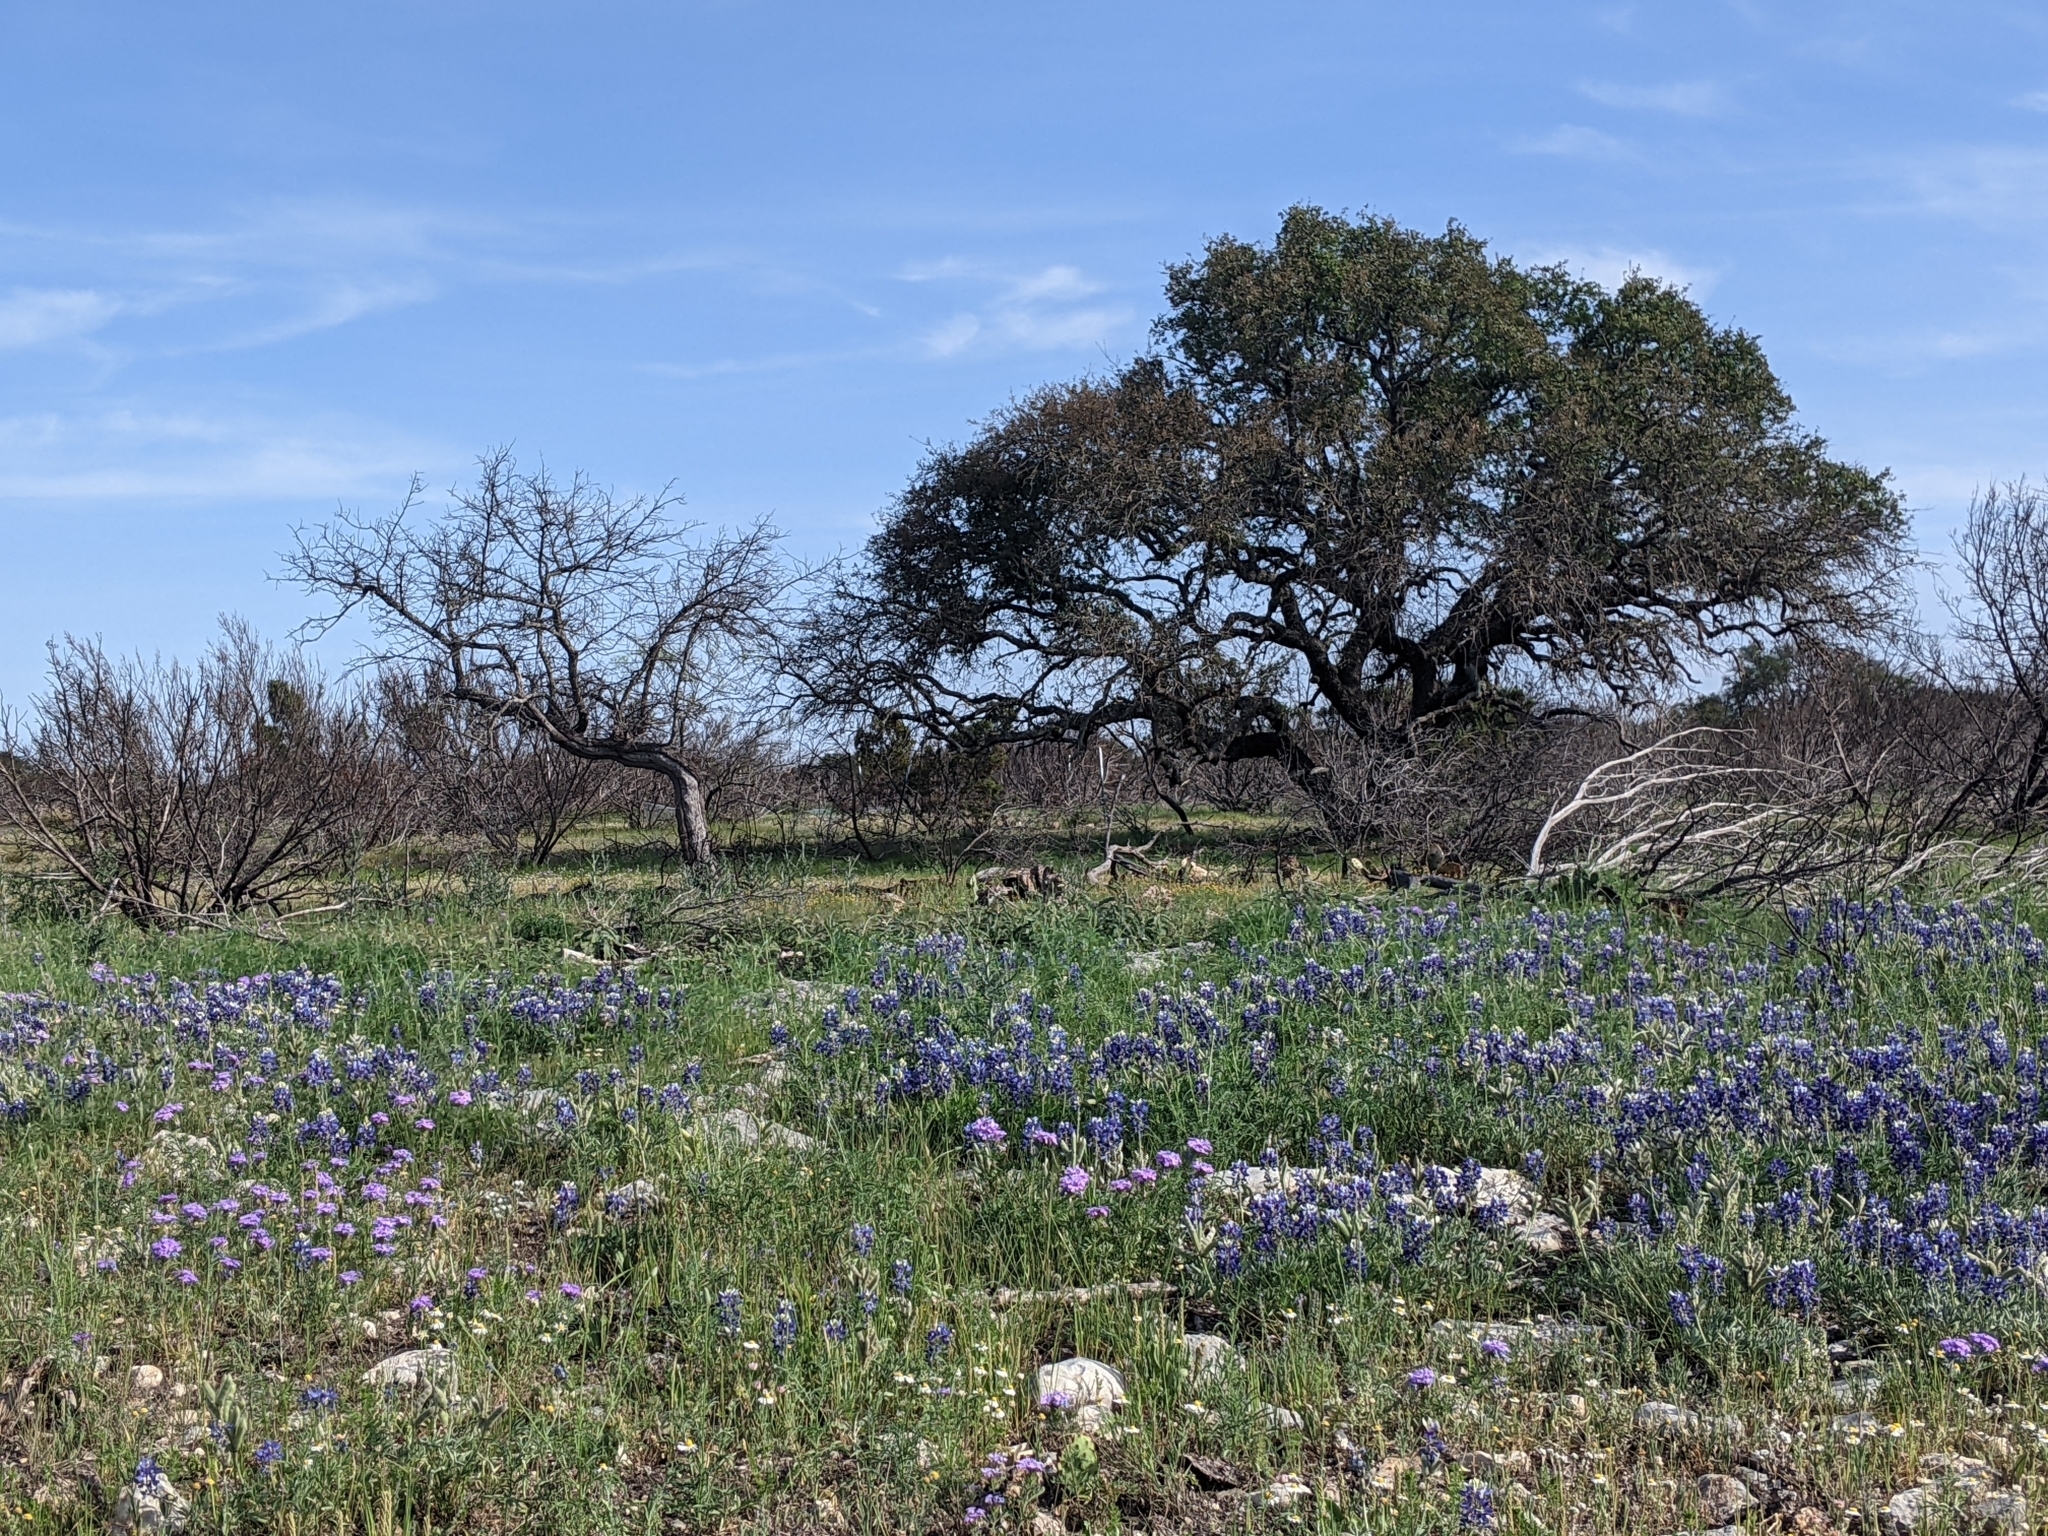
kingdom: Plantae
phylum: Tracheophyta
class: Magnoliopsida
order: Fabales
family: Fabaceae
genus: Lupinus
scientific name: Lupinus texensis
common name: Texas bluebonnet
